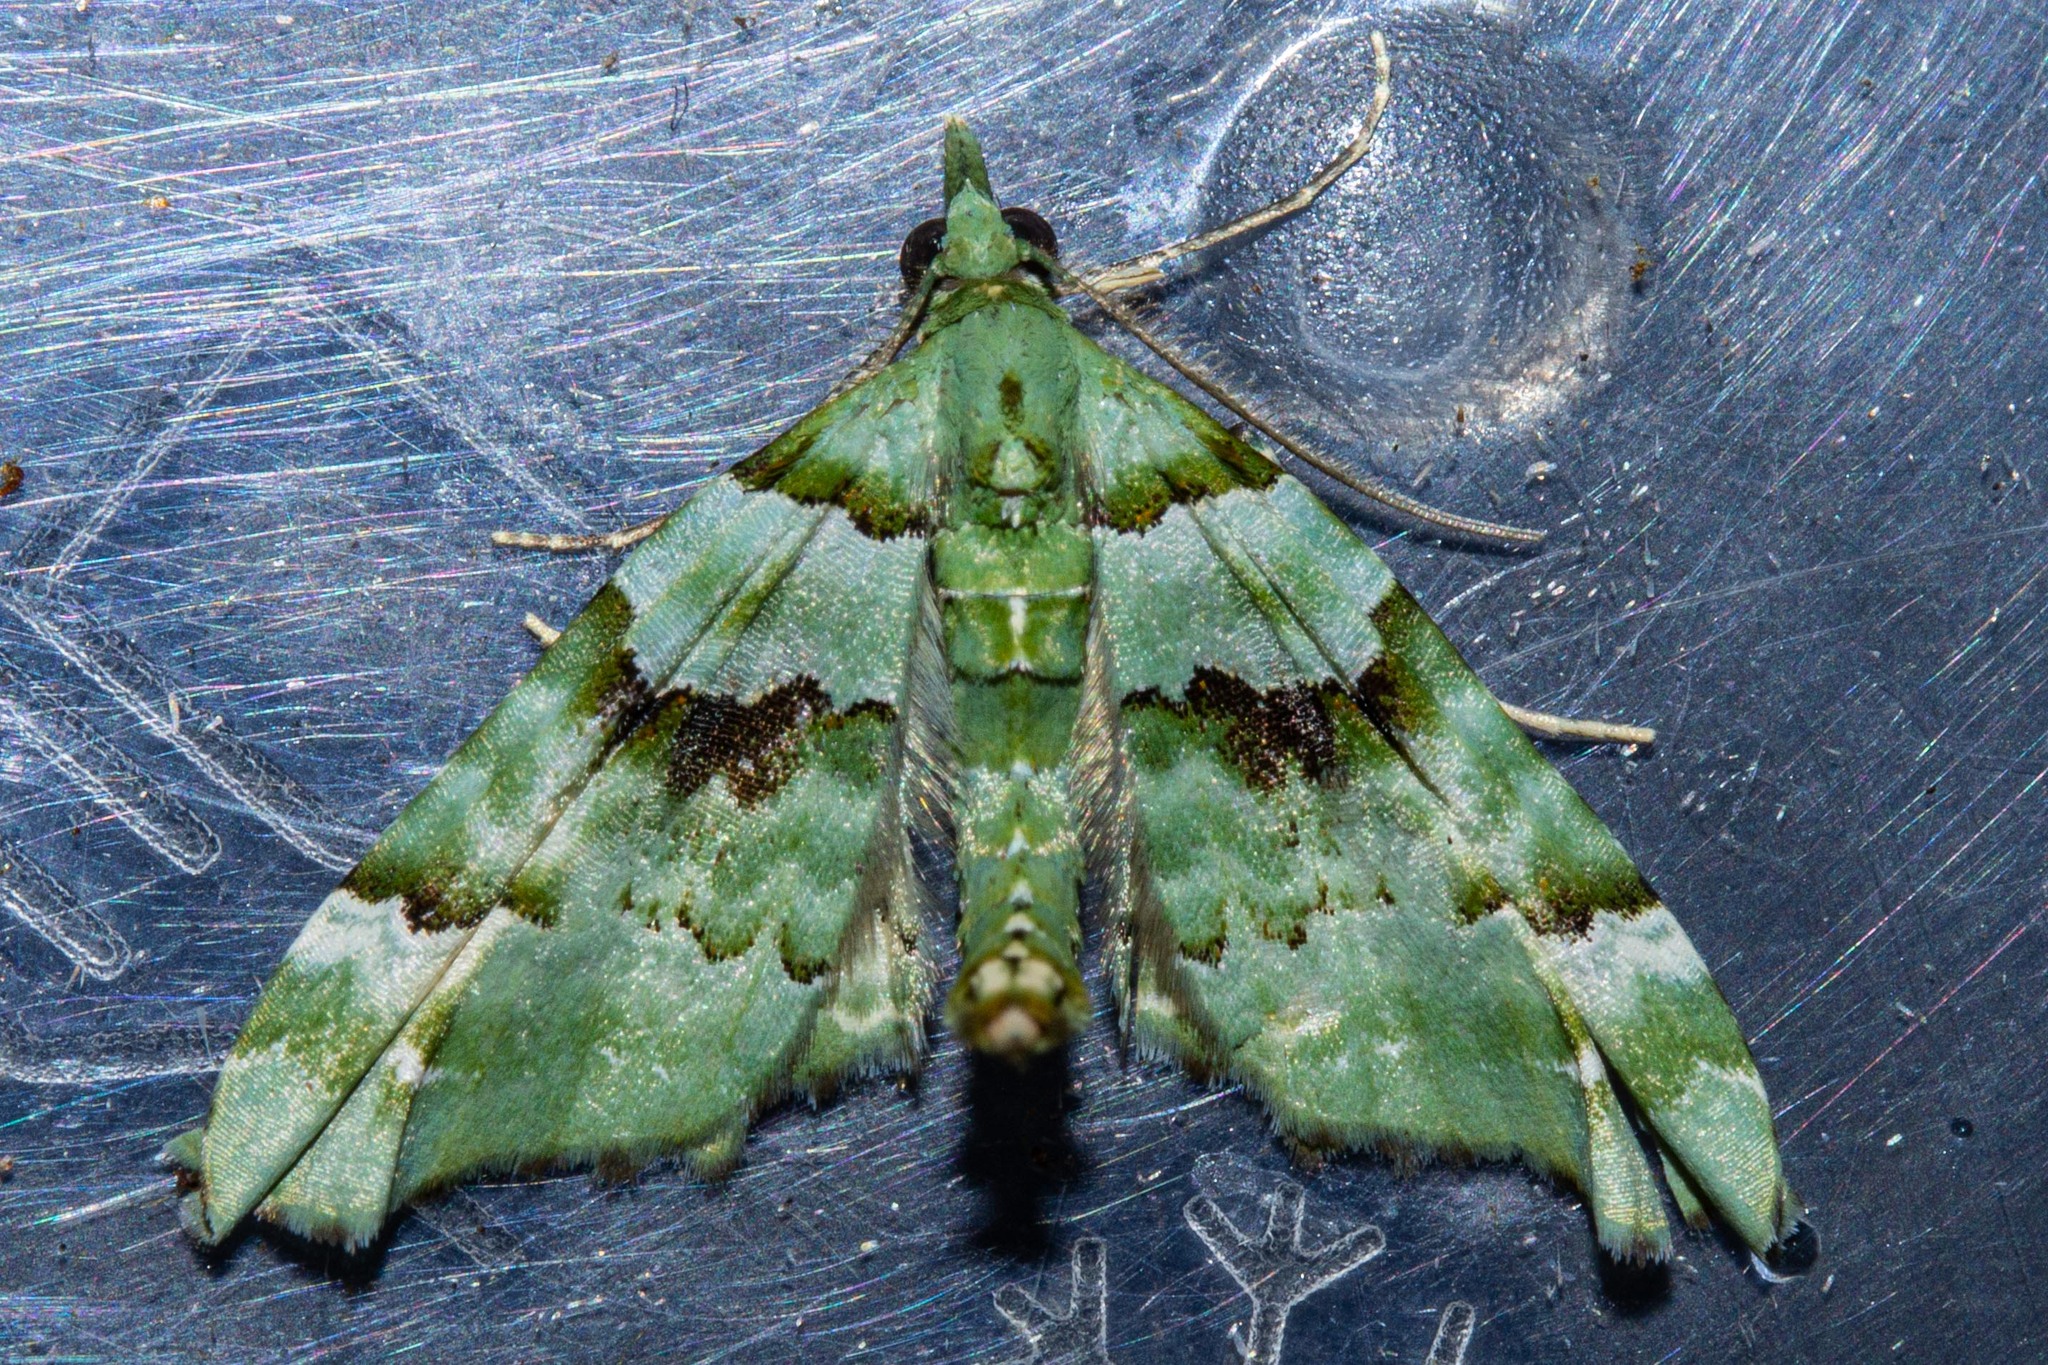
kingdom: Animalia
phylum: Arthropoda
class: Insecta
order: Lepidoptera
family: Geometridae
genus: Elvia
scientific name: Elvia glaucata
